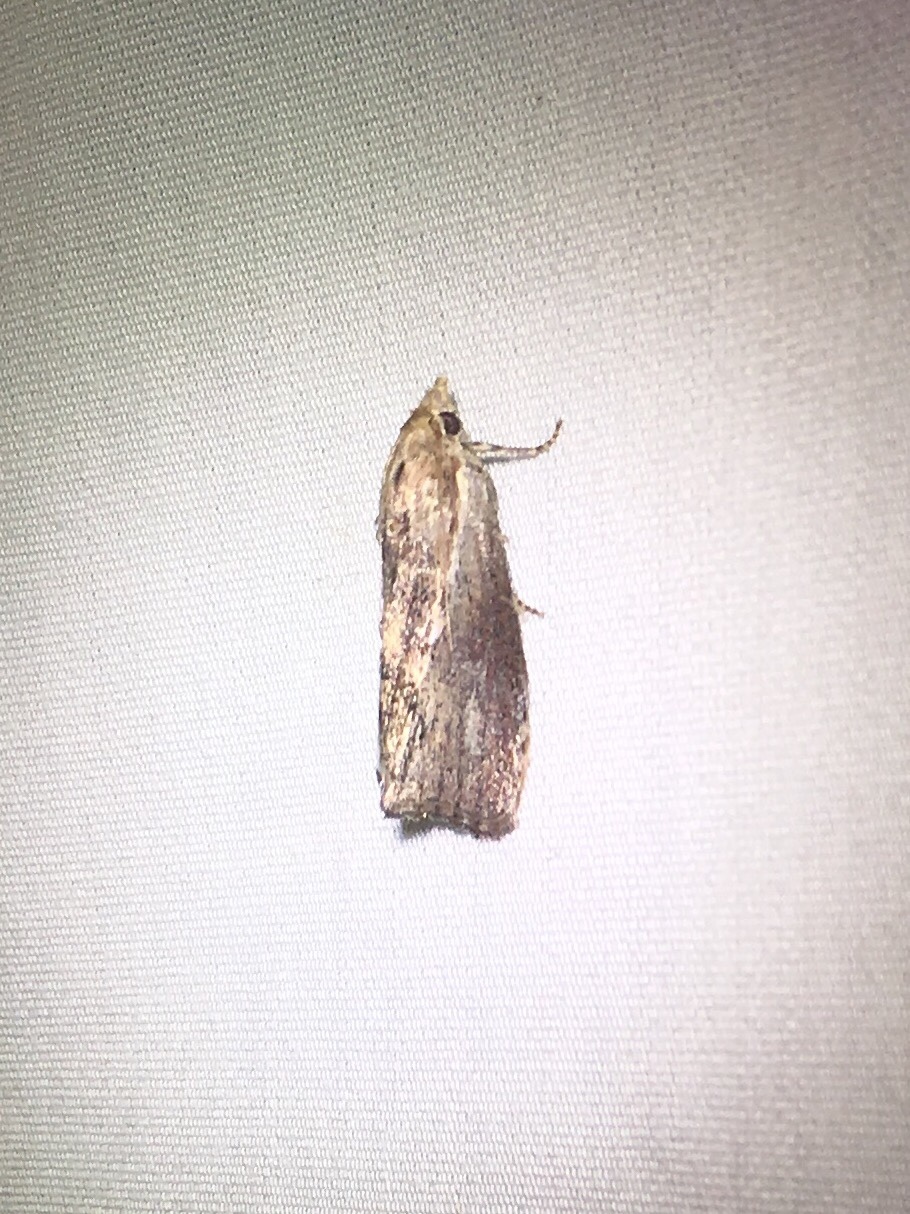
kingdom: Animalia
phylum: Arthropoda
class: Insecta
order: Lepidoptera
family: Pyralidae
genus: Galleria
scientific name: Galleria mellonella
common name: Greater wax moth
